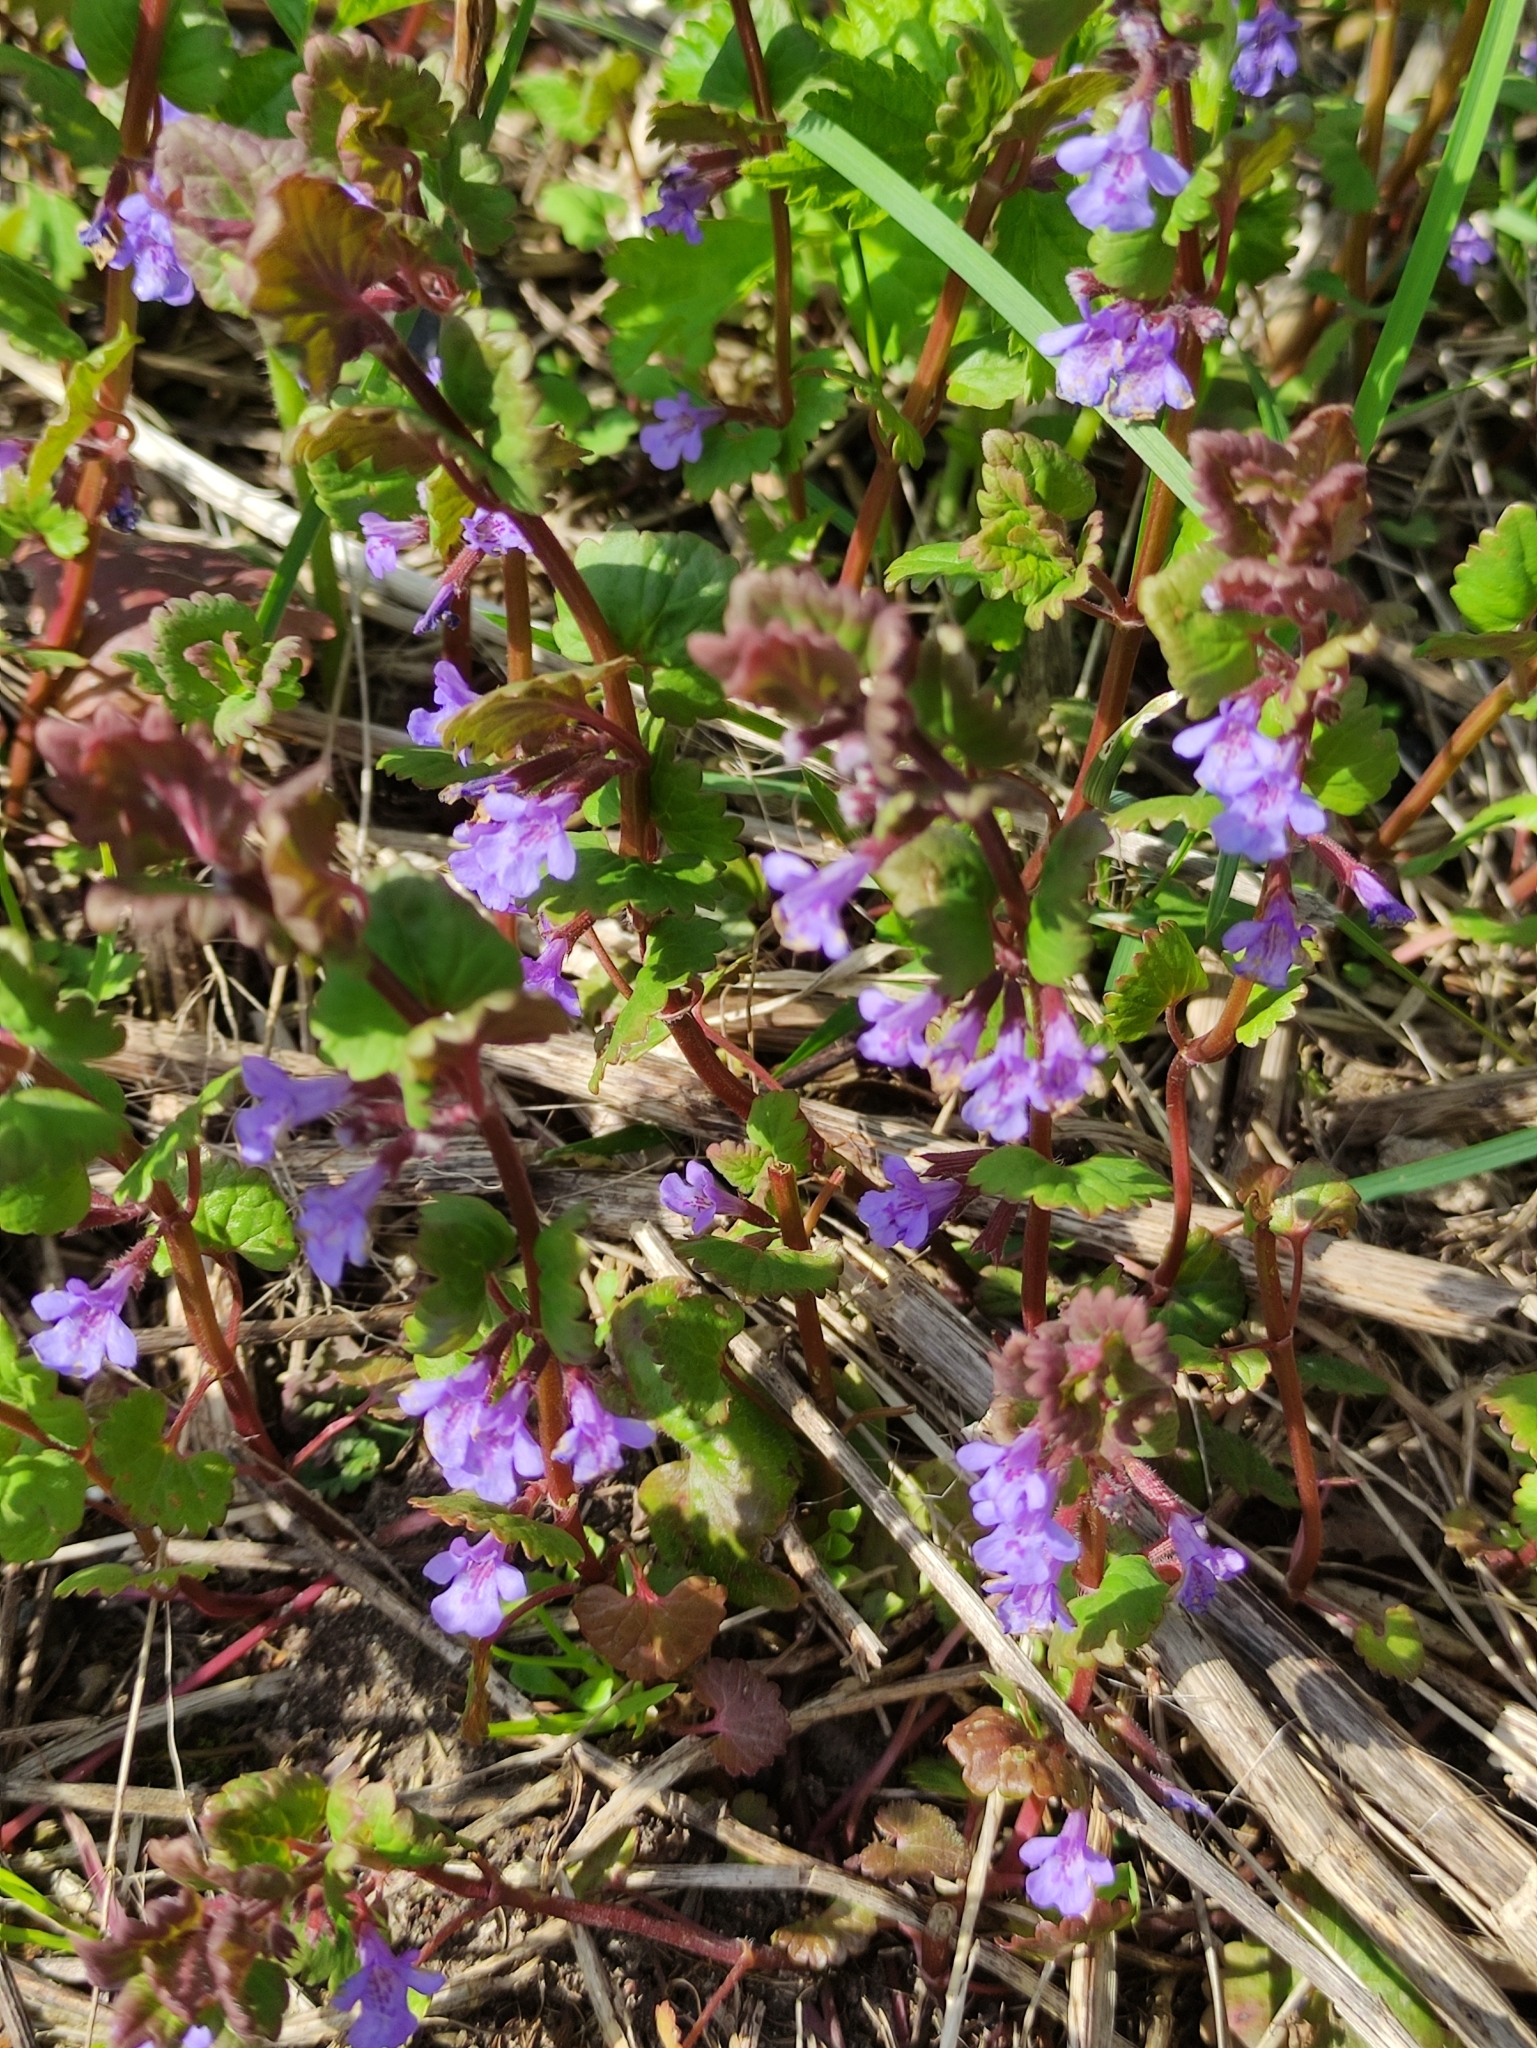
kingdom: Plantae
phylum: Tracheophyta
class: Magnoliopsida
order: Lamiales
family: Lamiaceae
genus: Glechoma
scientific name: Glechoma hederacea
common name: Ground ivy
